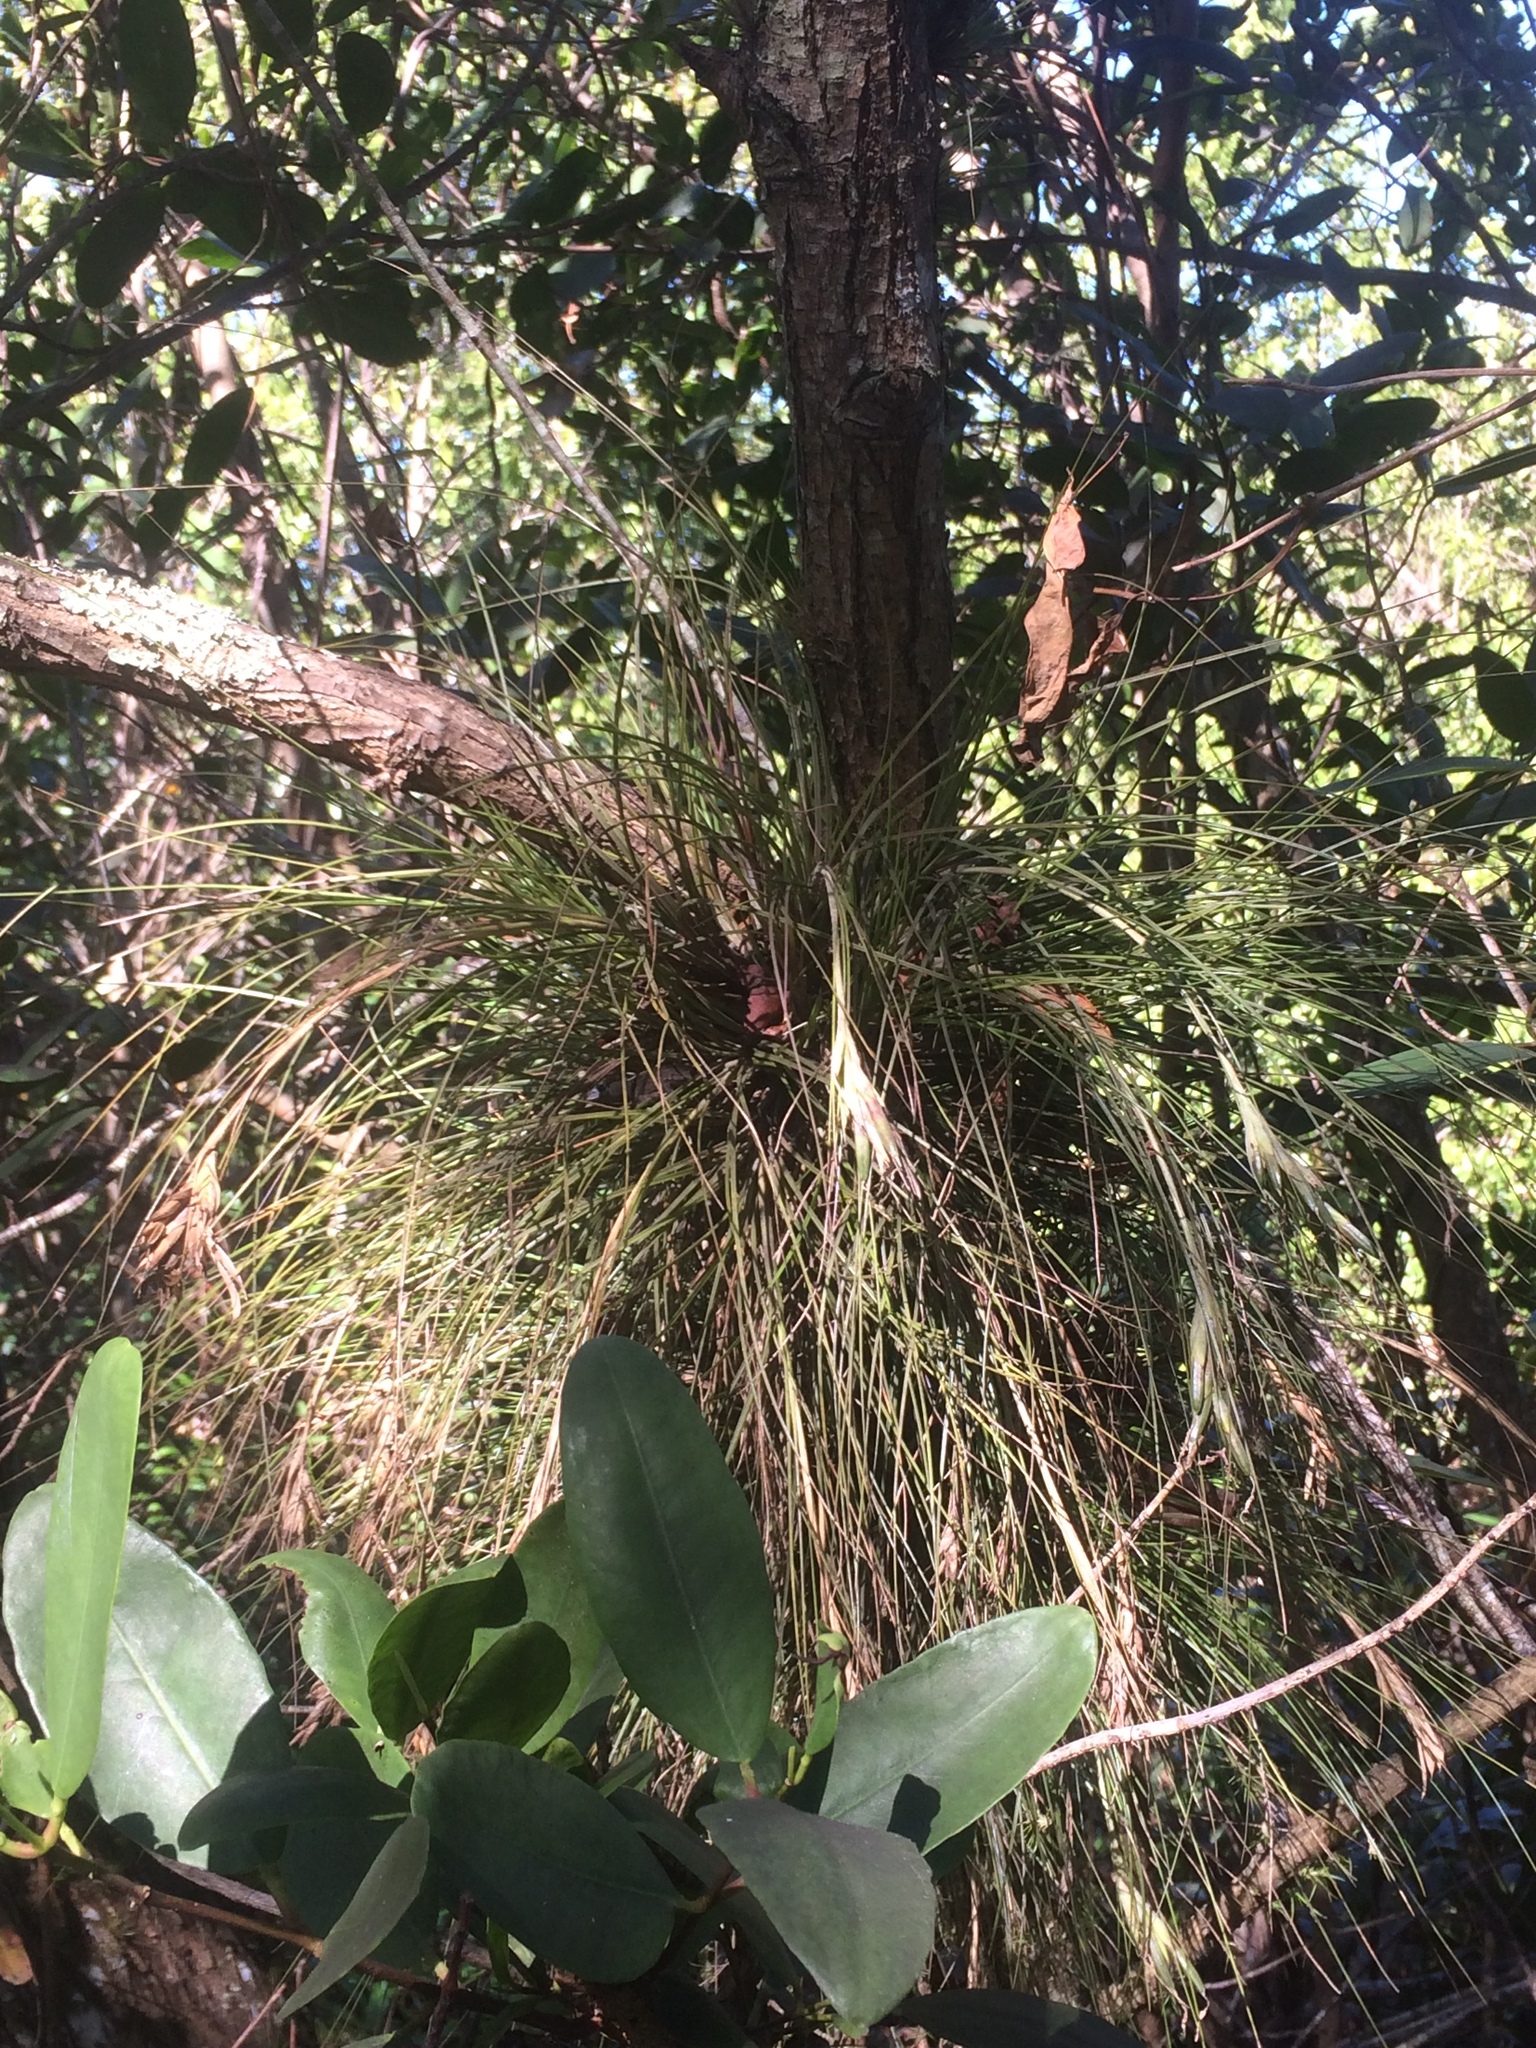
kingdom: Plantae
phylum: Tracheophyta
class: Liliopsida
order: Poales
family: Bromeliaceae
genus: Tillandsia
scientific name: Tillandsia setacea
